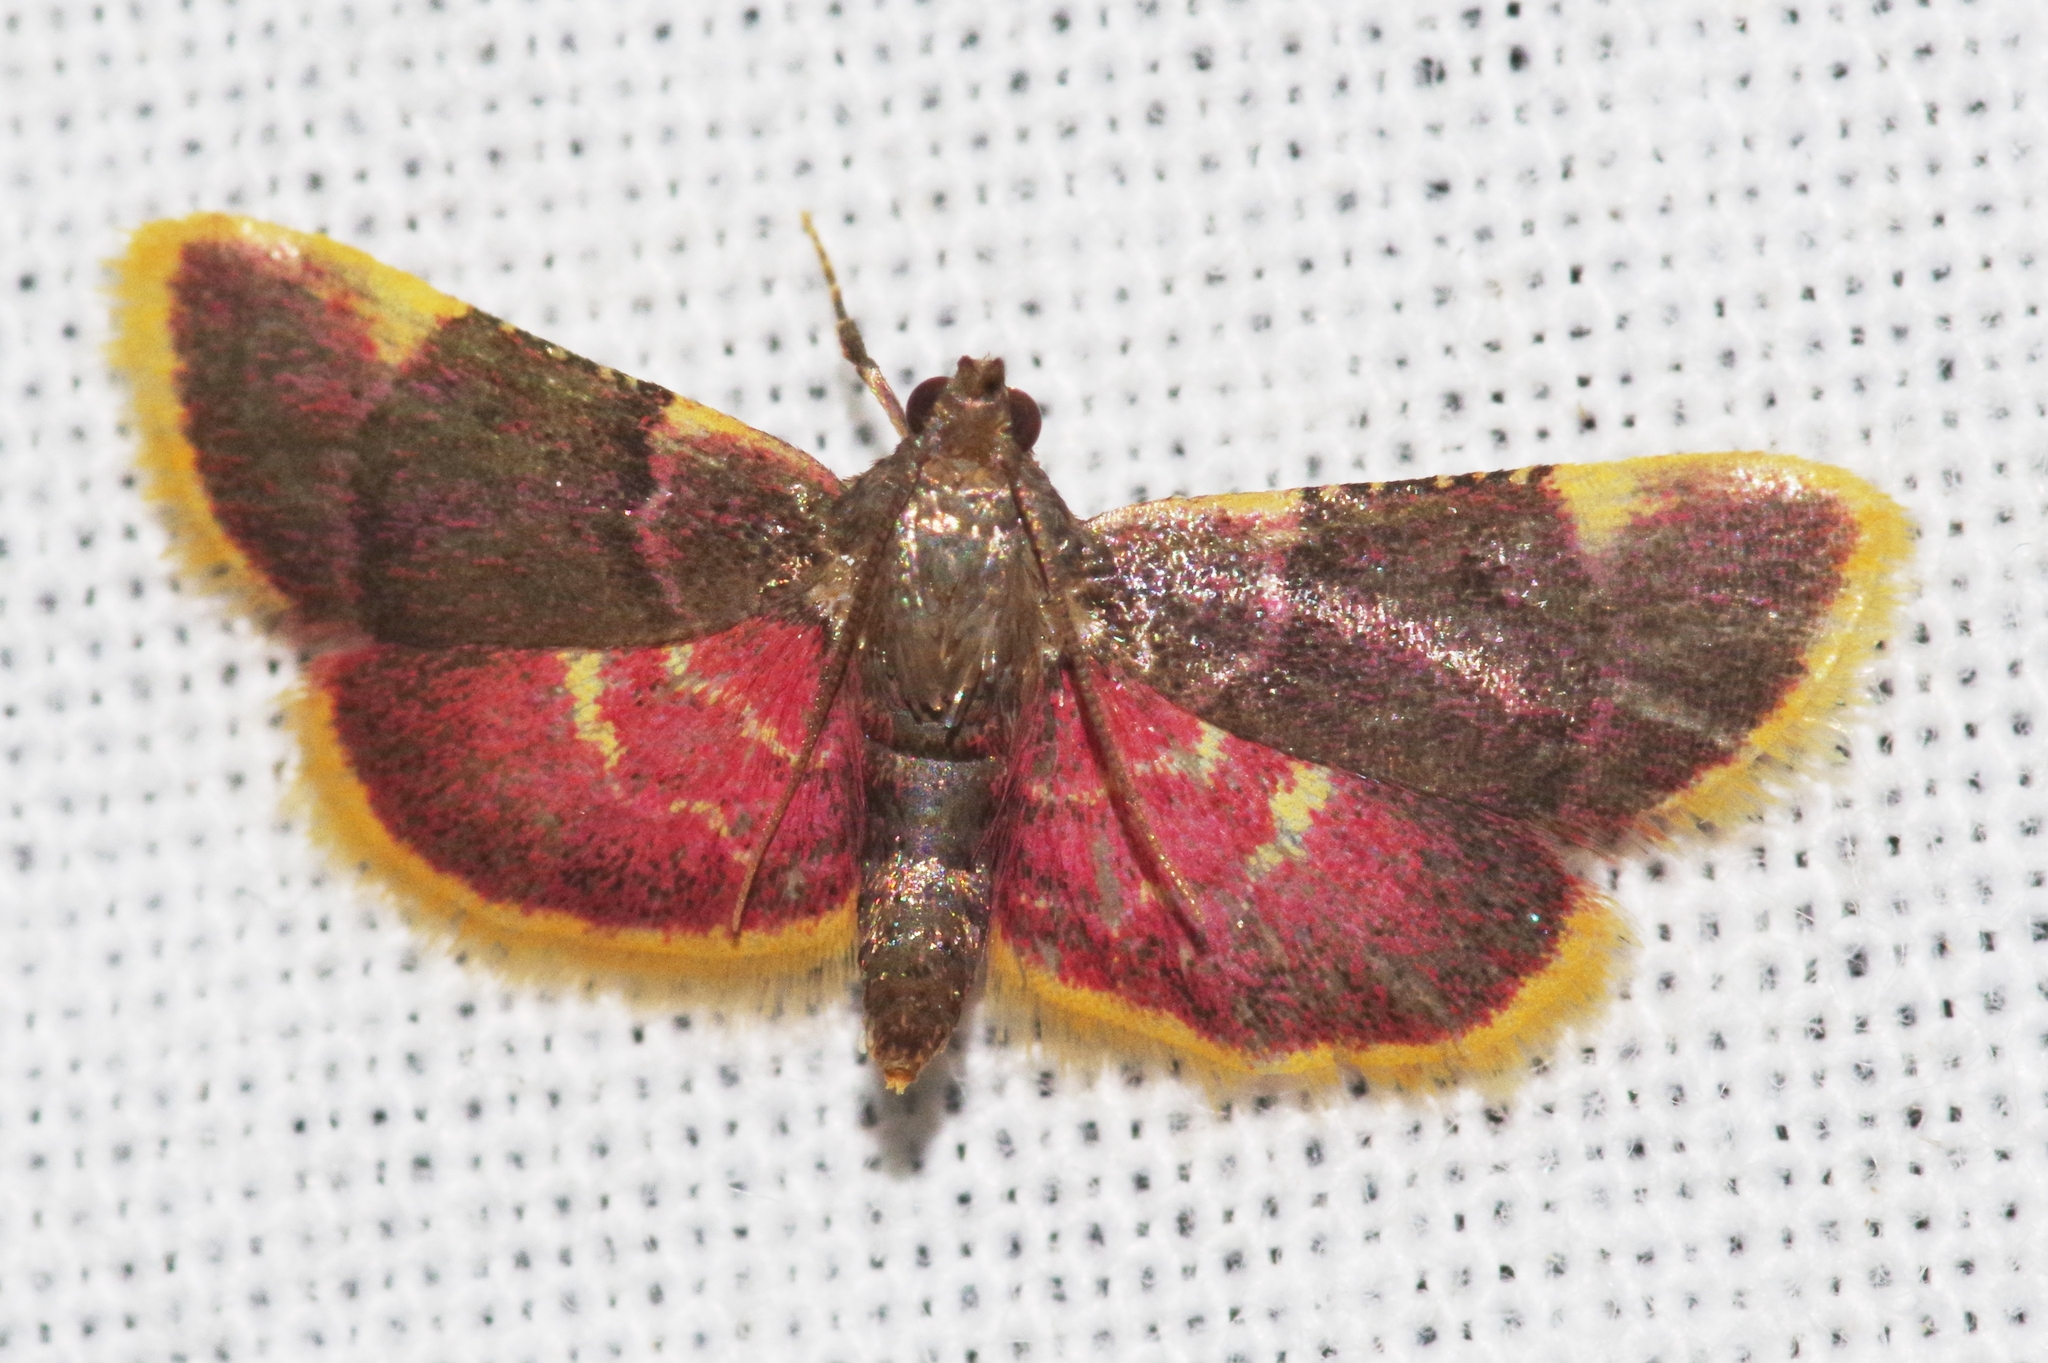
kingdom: Animalia
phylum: Arthropoda
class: Insecta
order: Lepidoptera
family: Pyralidae
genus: Hypsopygia
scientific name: Hypsopygia regina
